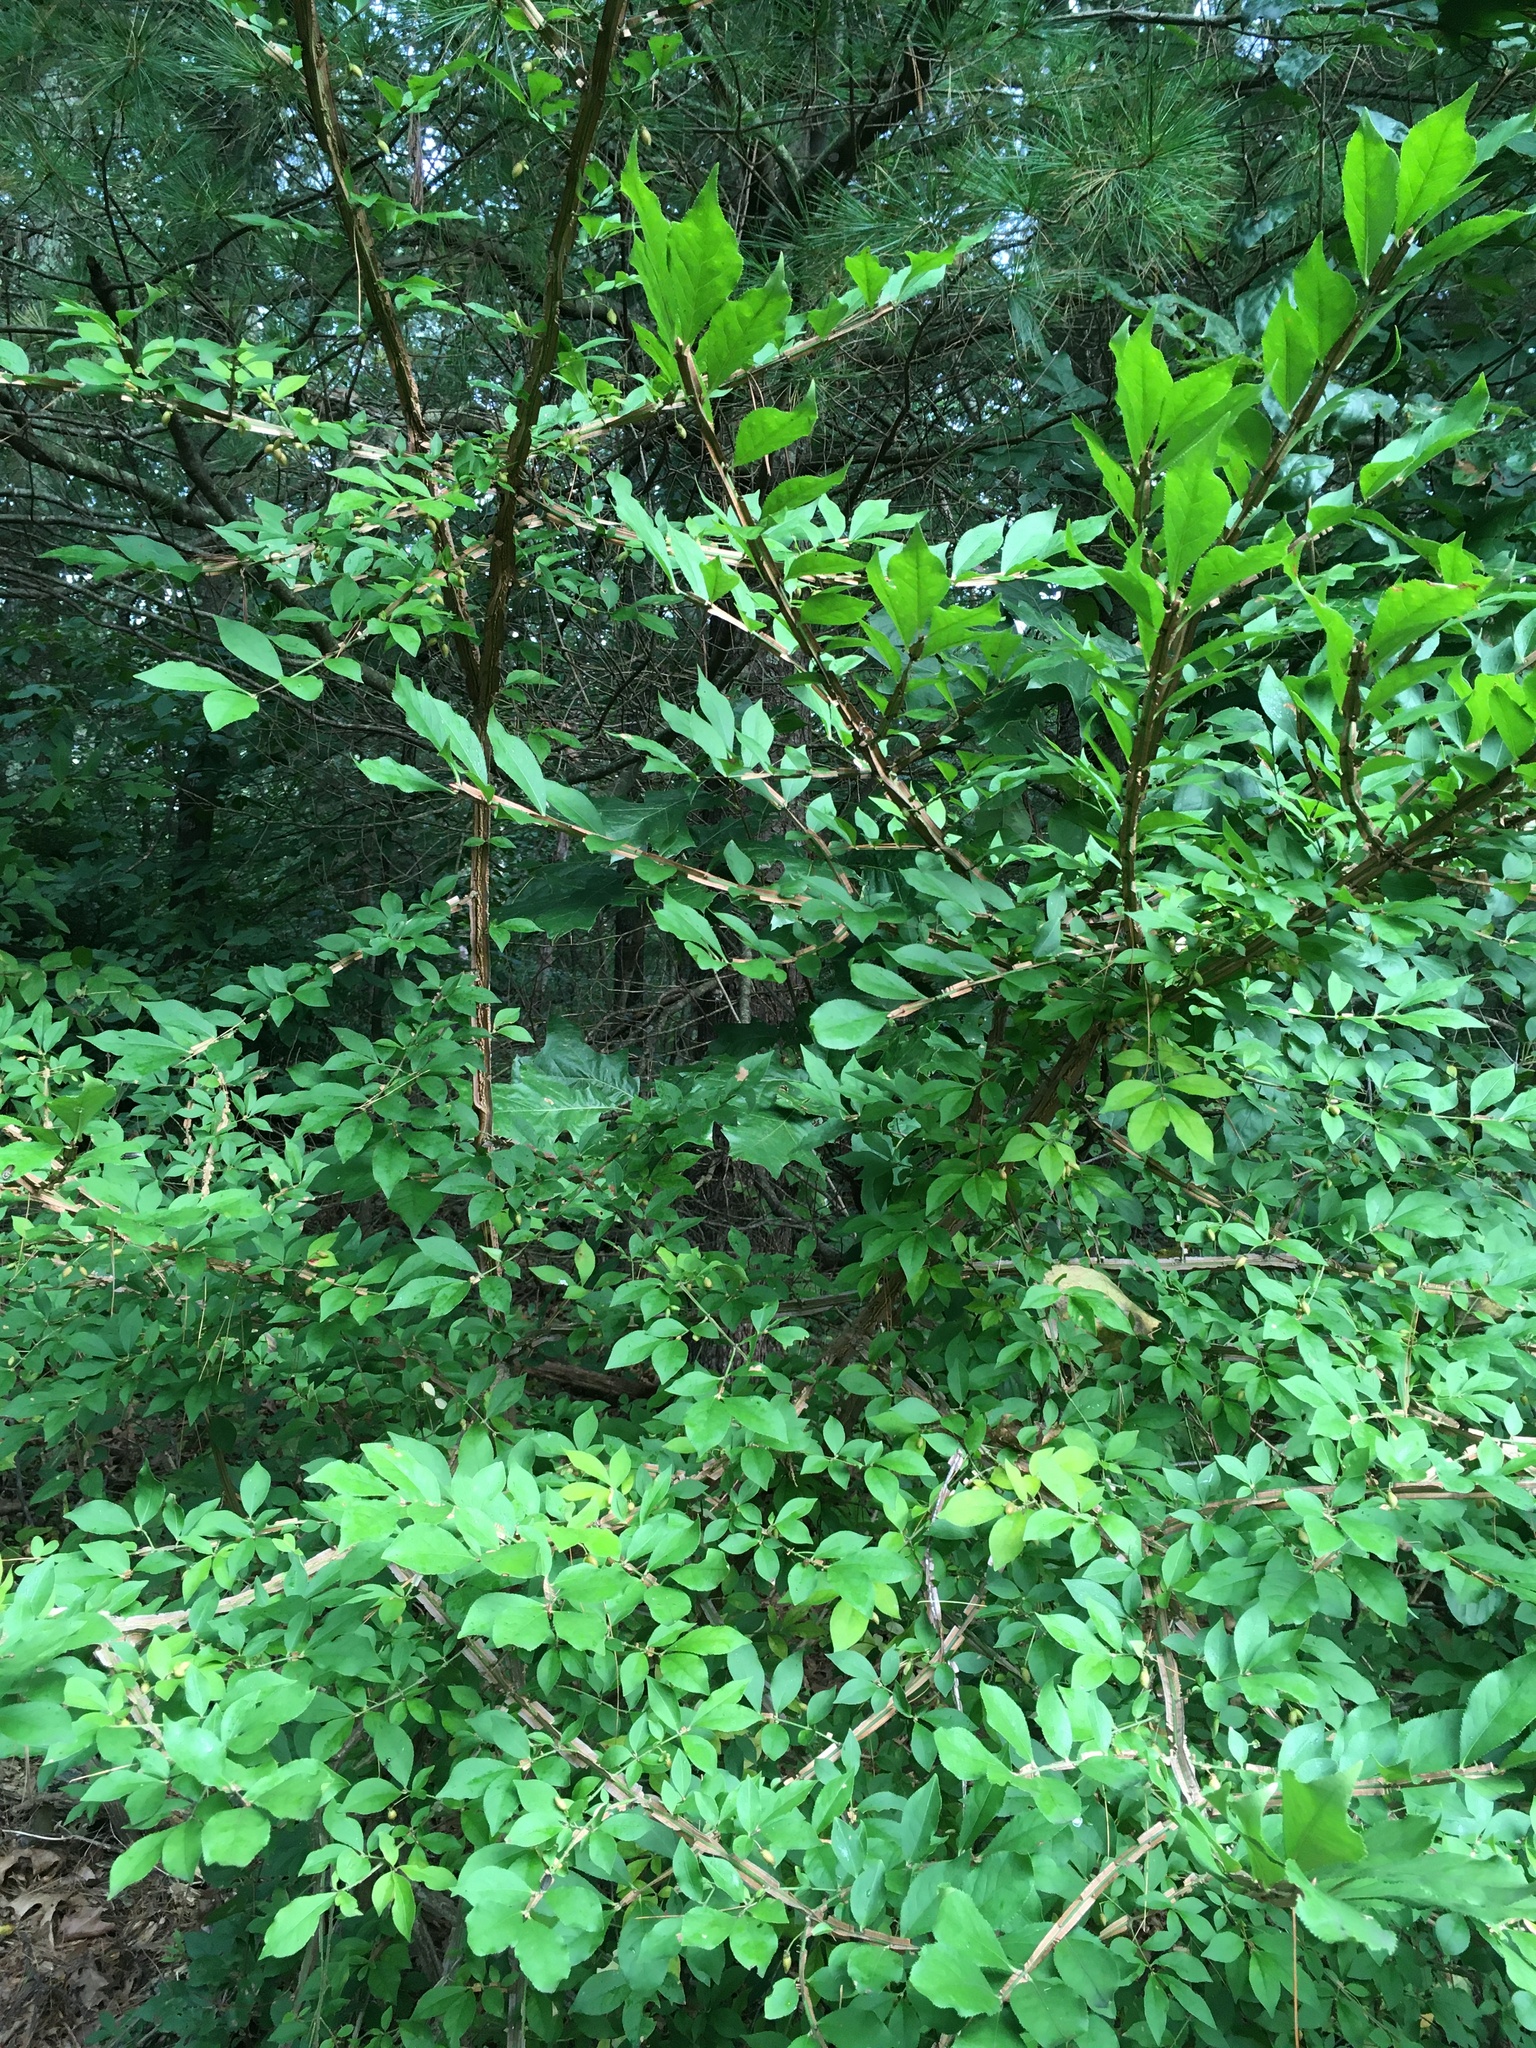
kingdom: Plantae
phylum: Tracheophyta
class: Magnoliopsida
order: Celastrales
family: Celastraceae
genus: Euonymus
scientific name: Euonymus alatus
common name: Winged euonymus
